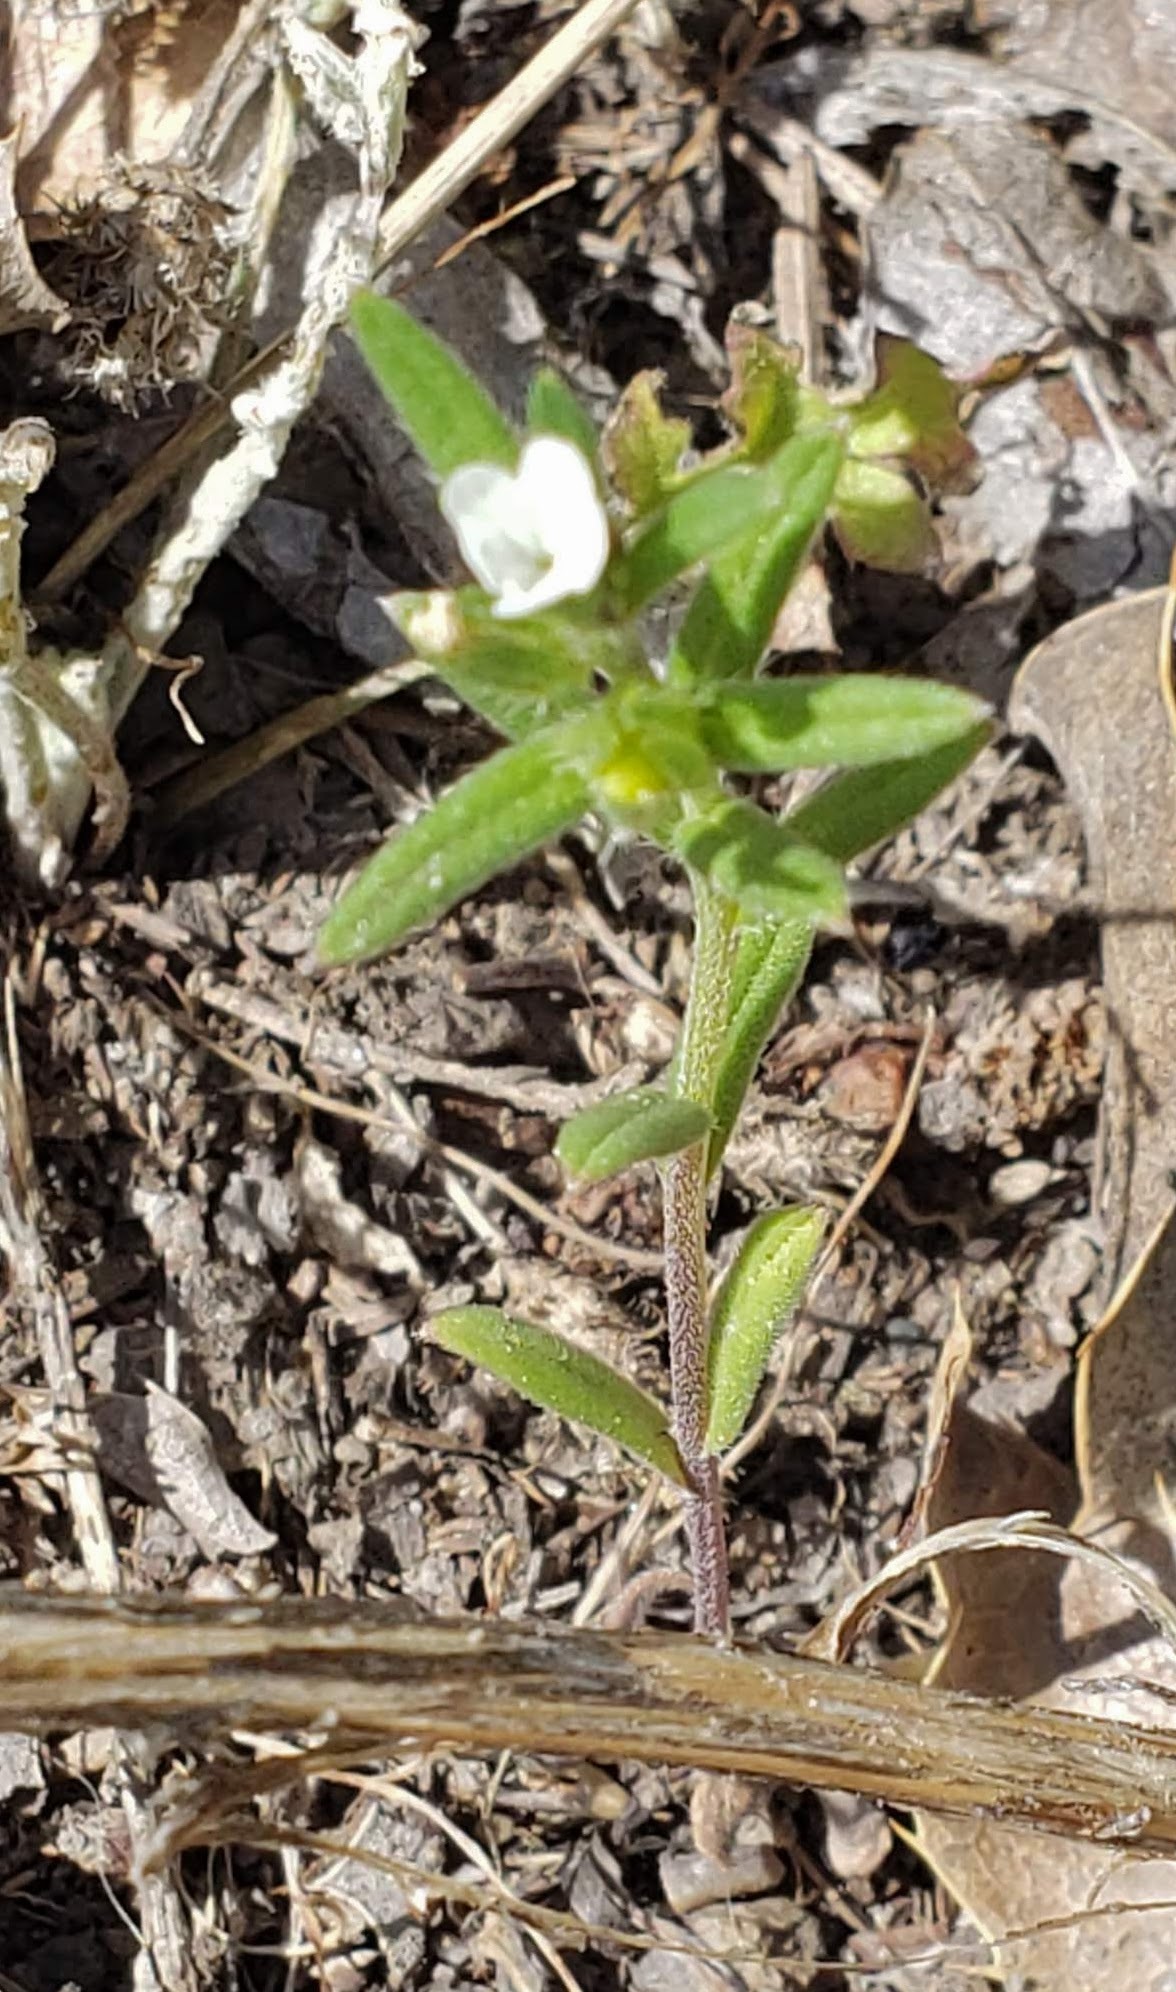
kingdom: Plantae
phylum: Tracheophyta
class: Magnoliopsida
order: Boraginales
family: Boraginaceae
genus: Buglossoides
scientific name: Buglossoides arvensis
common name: Corn gromwell
